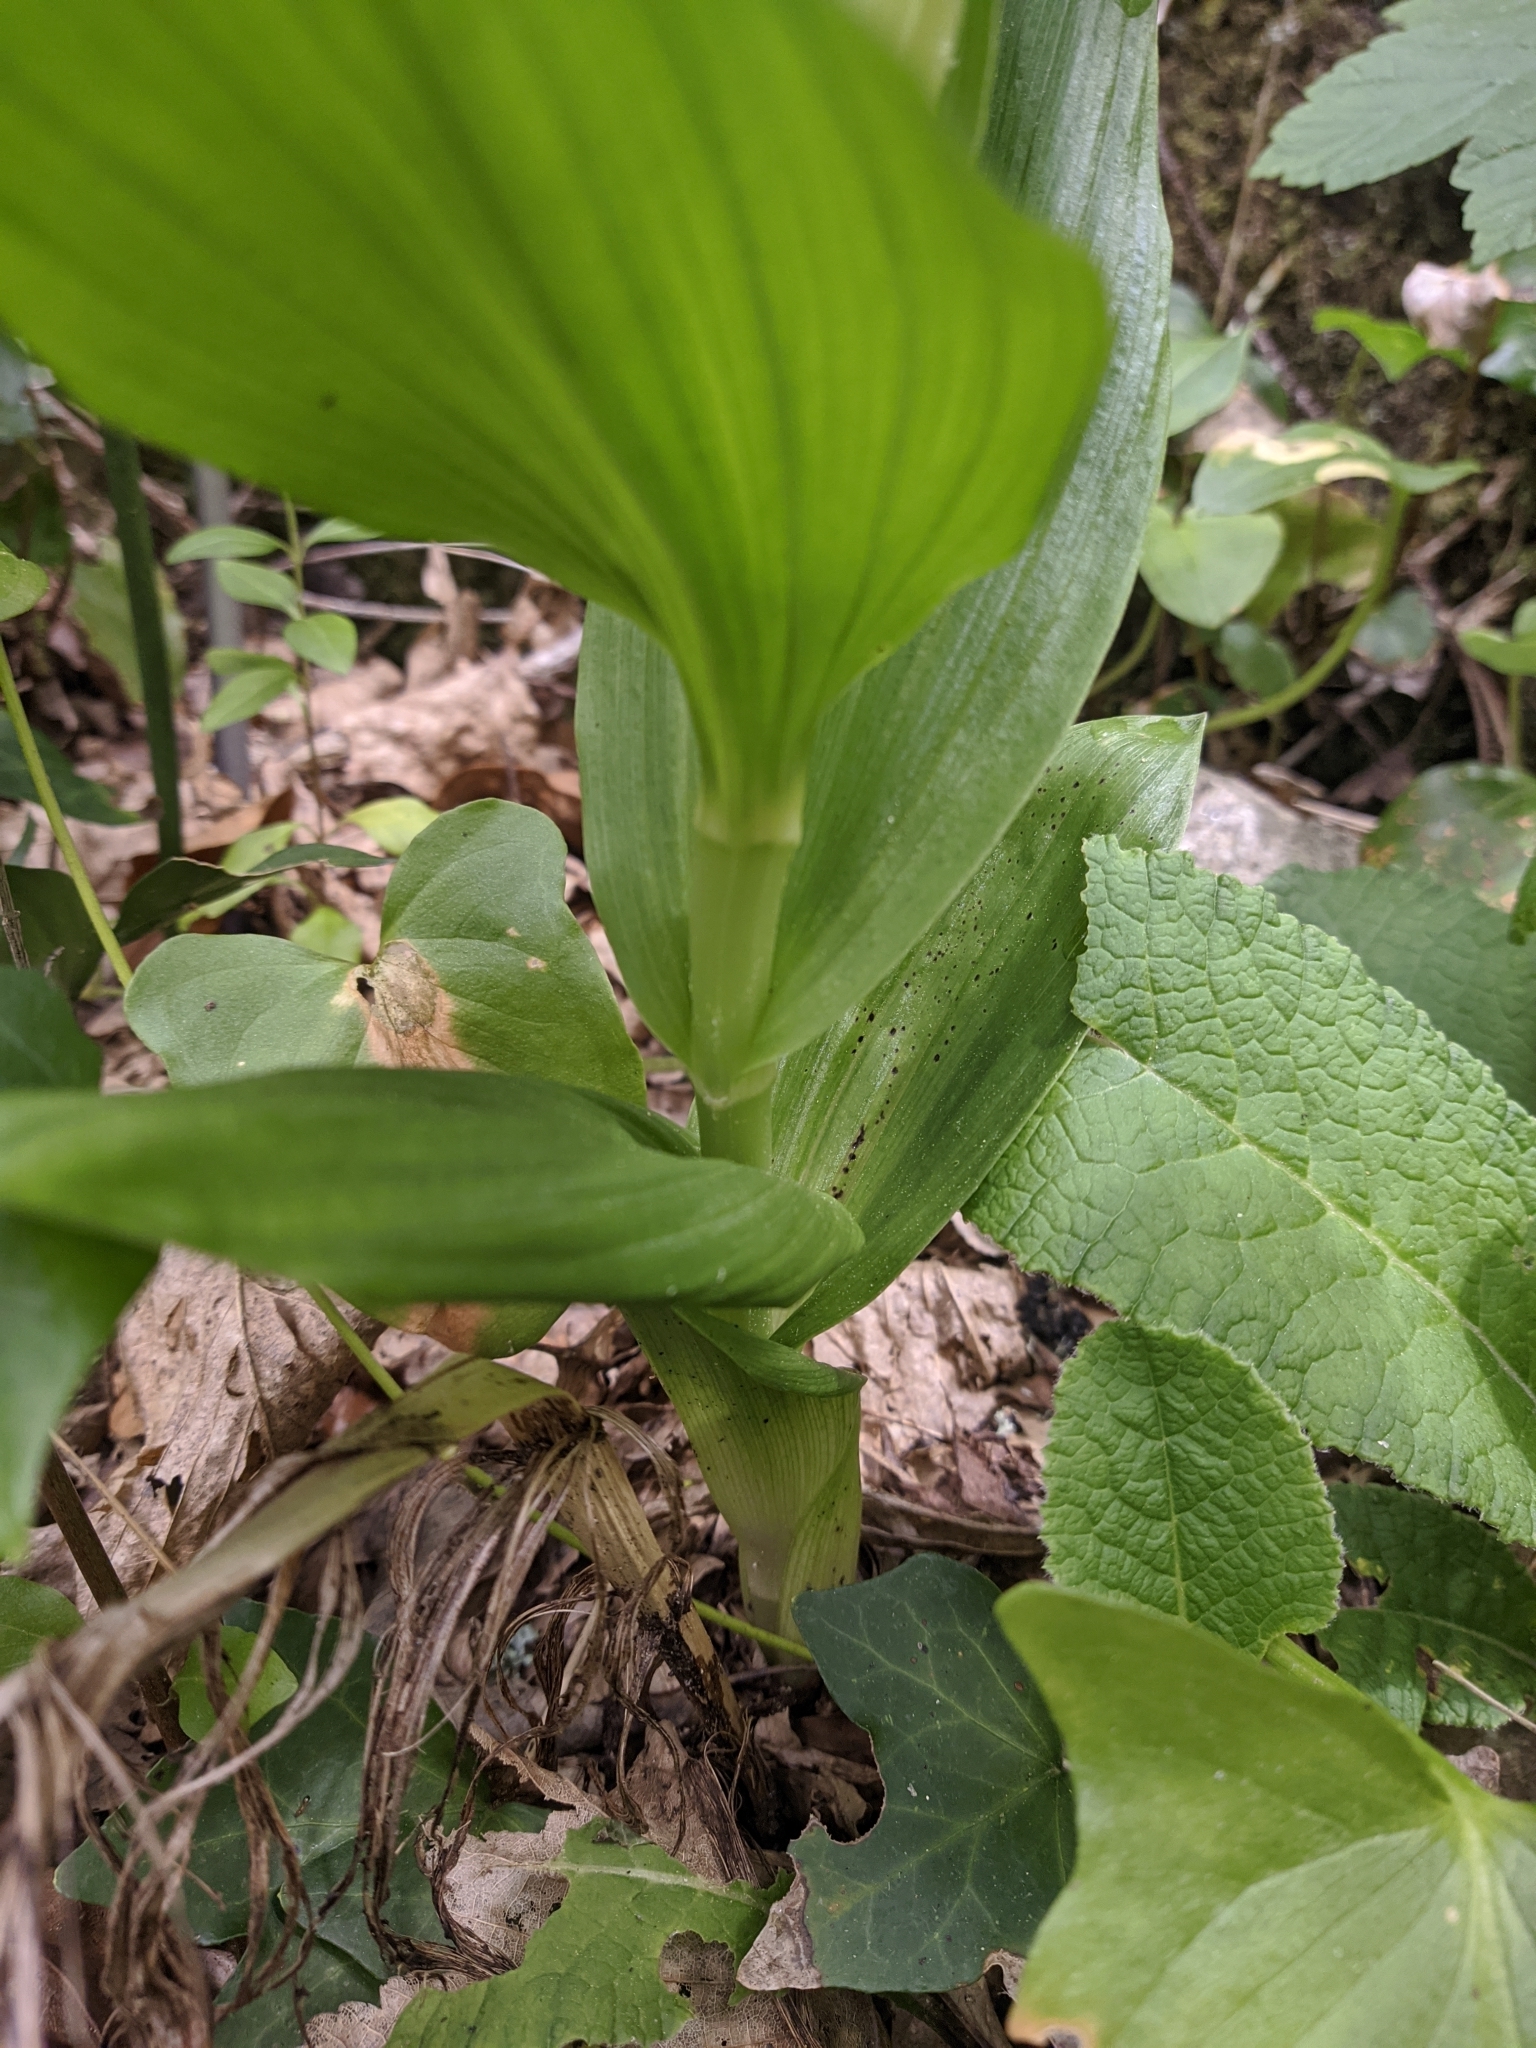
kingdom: Plantae
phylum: Tracheophyta
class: Liliopsida
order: Asparagales
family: Orchidaceae
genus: Cephalanthera
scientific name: Cephalanthera longifolia
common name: Narrow-leaved helleborine
